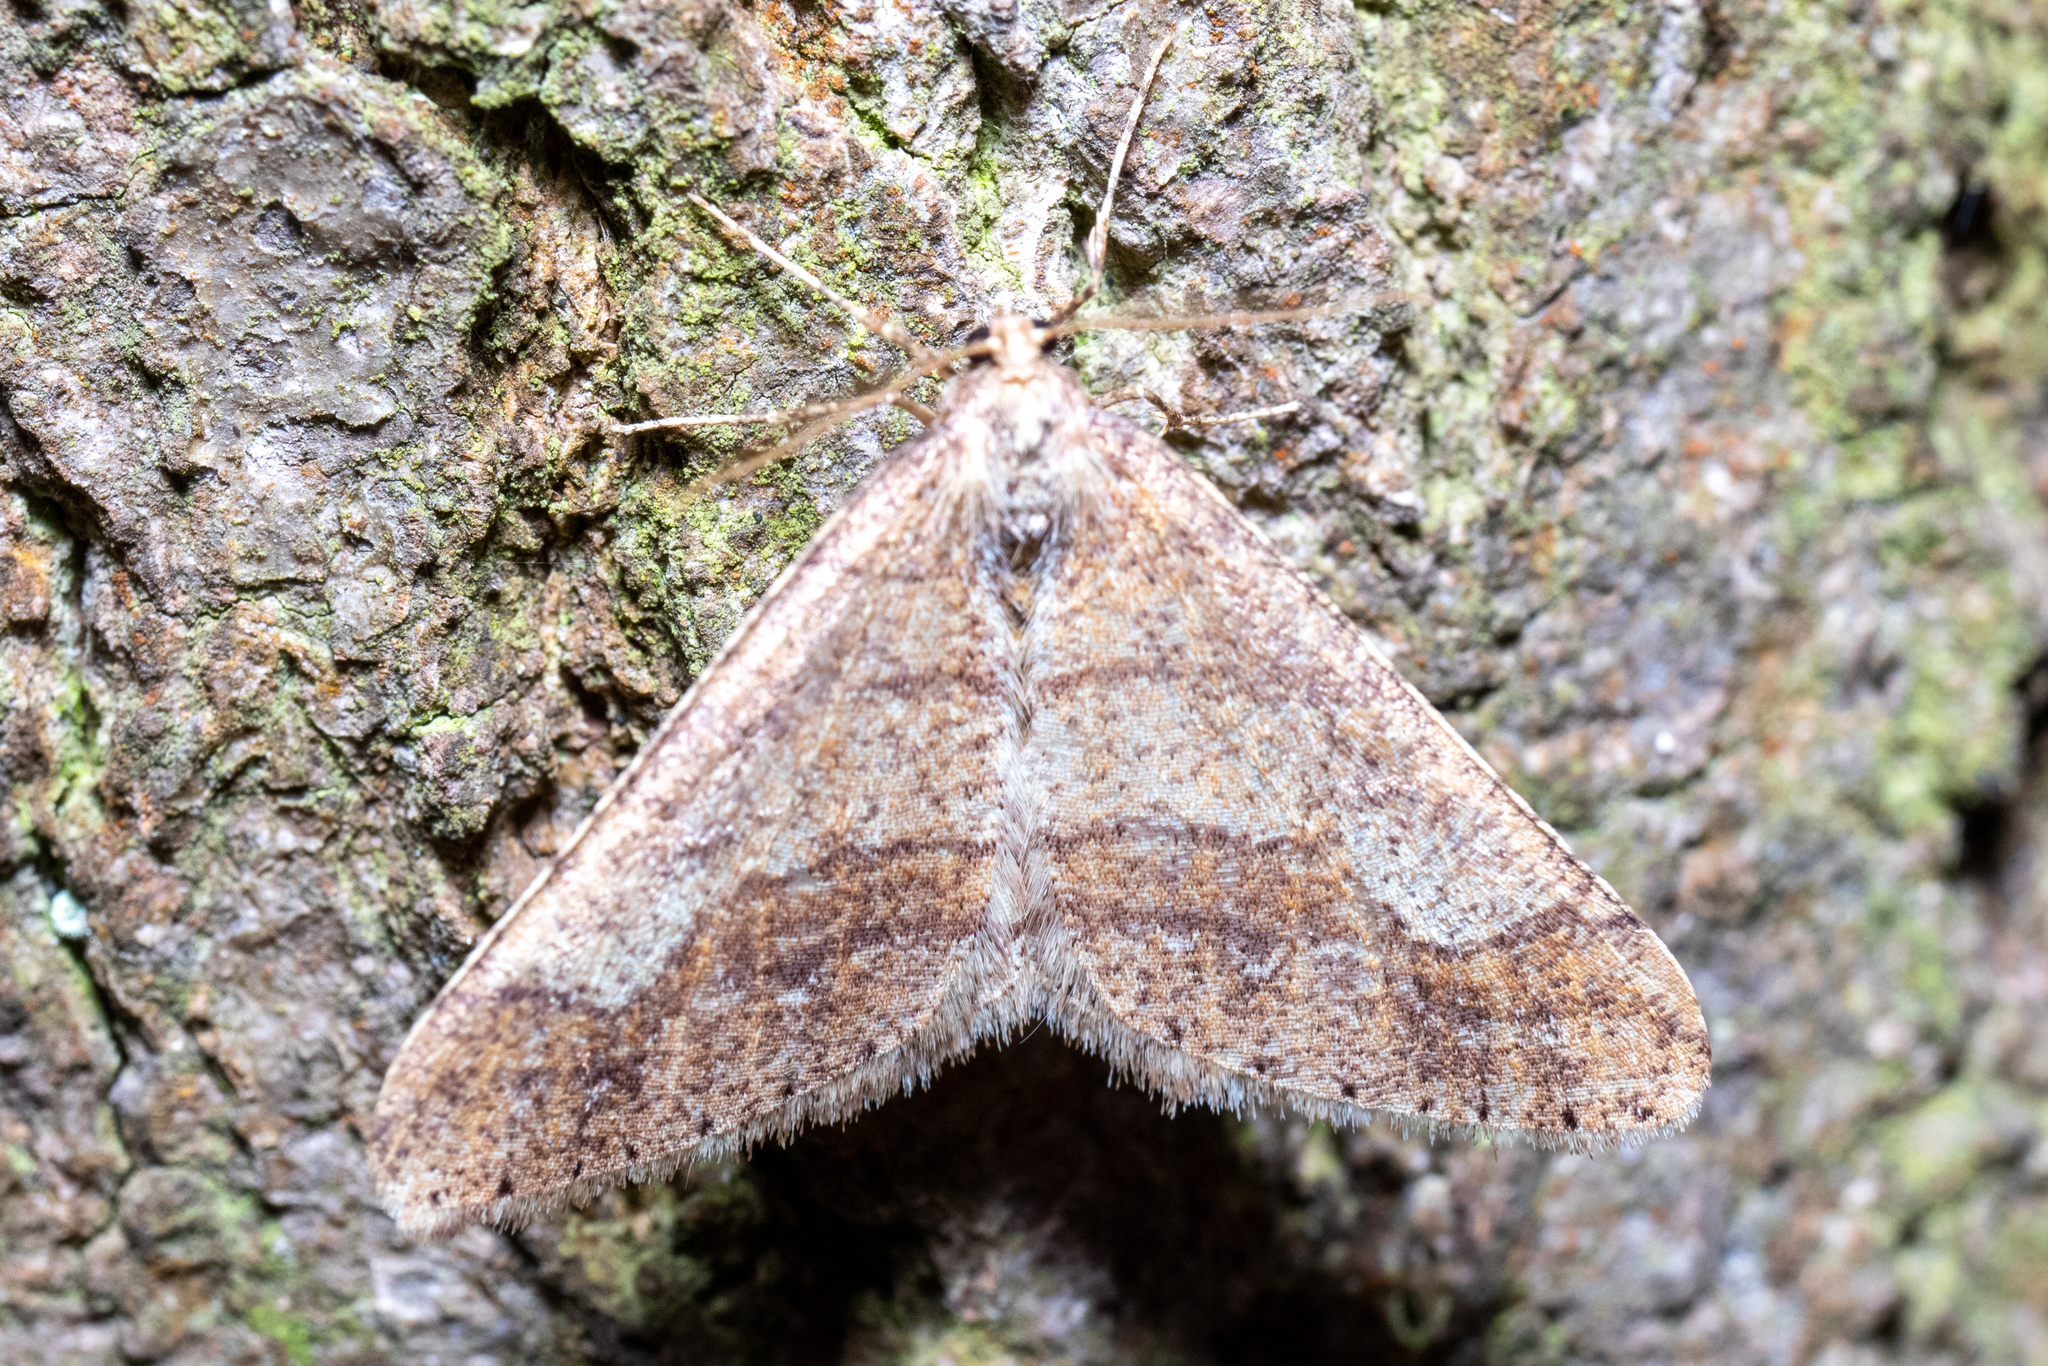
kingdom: Animalia
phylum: Arthropoda
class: Insecta
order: Lepidoptera
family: Geometridae
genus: Agriopis
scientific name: Agriopis marginaria
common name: Dotted border
